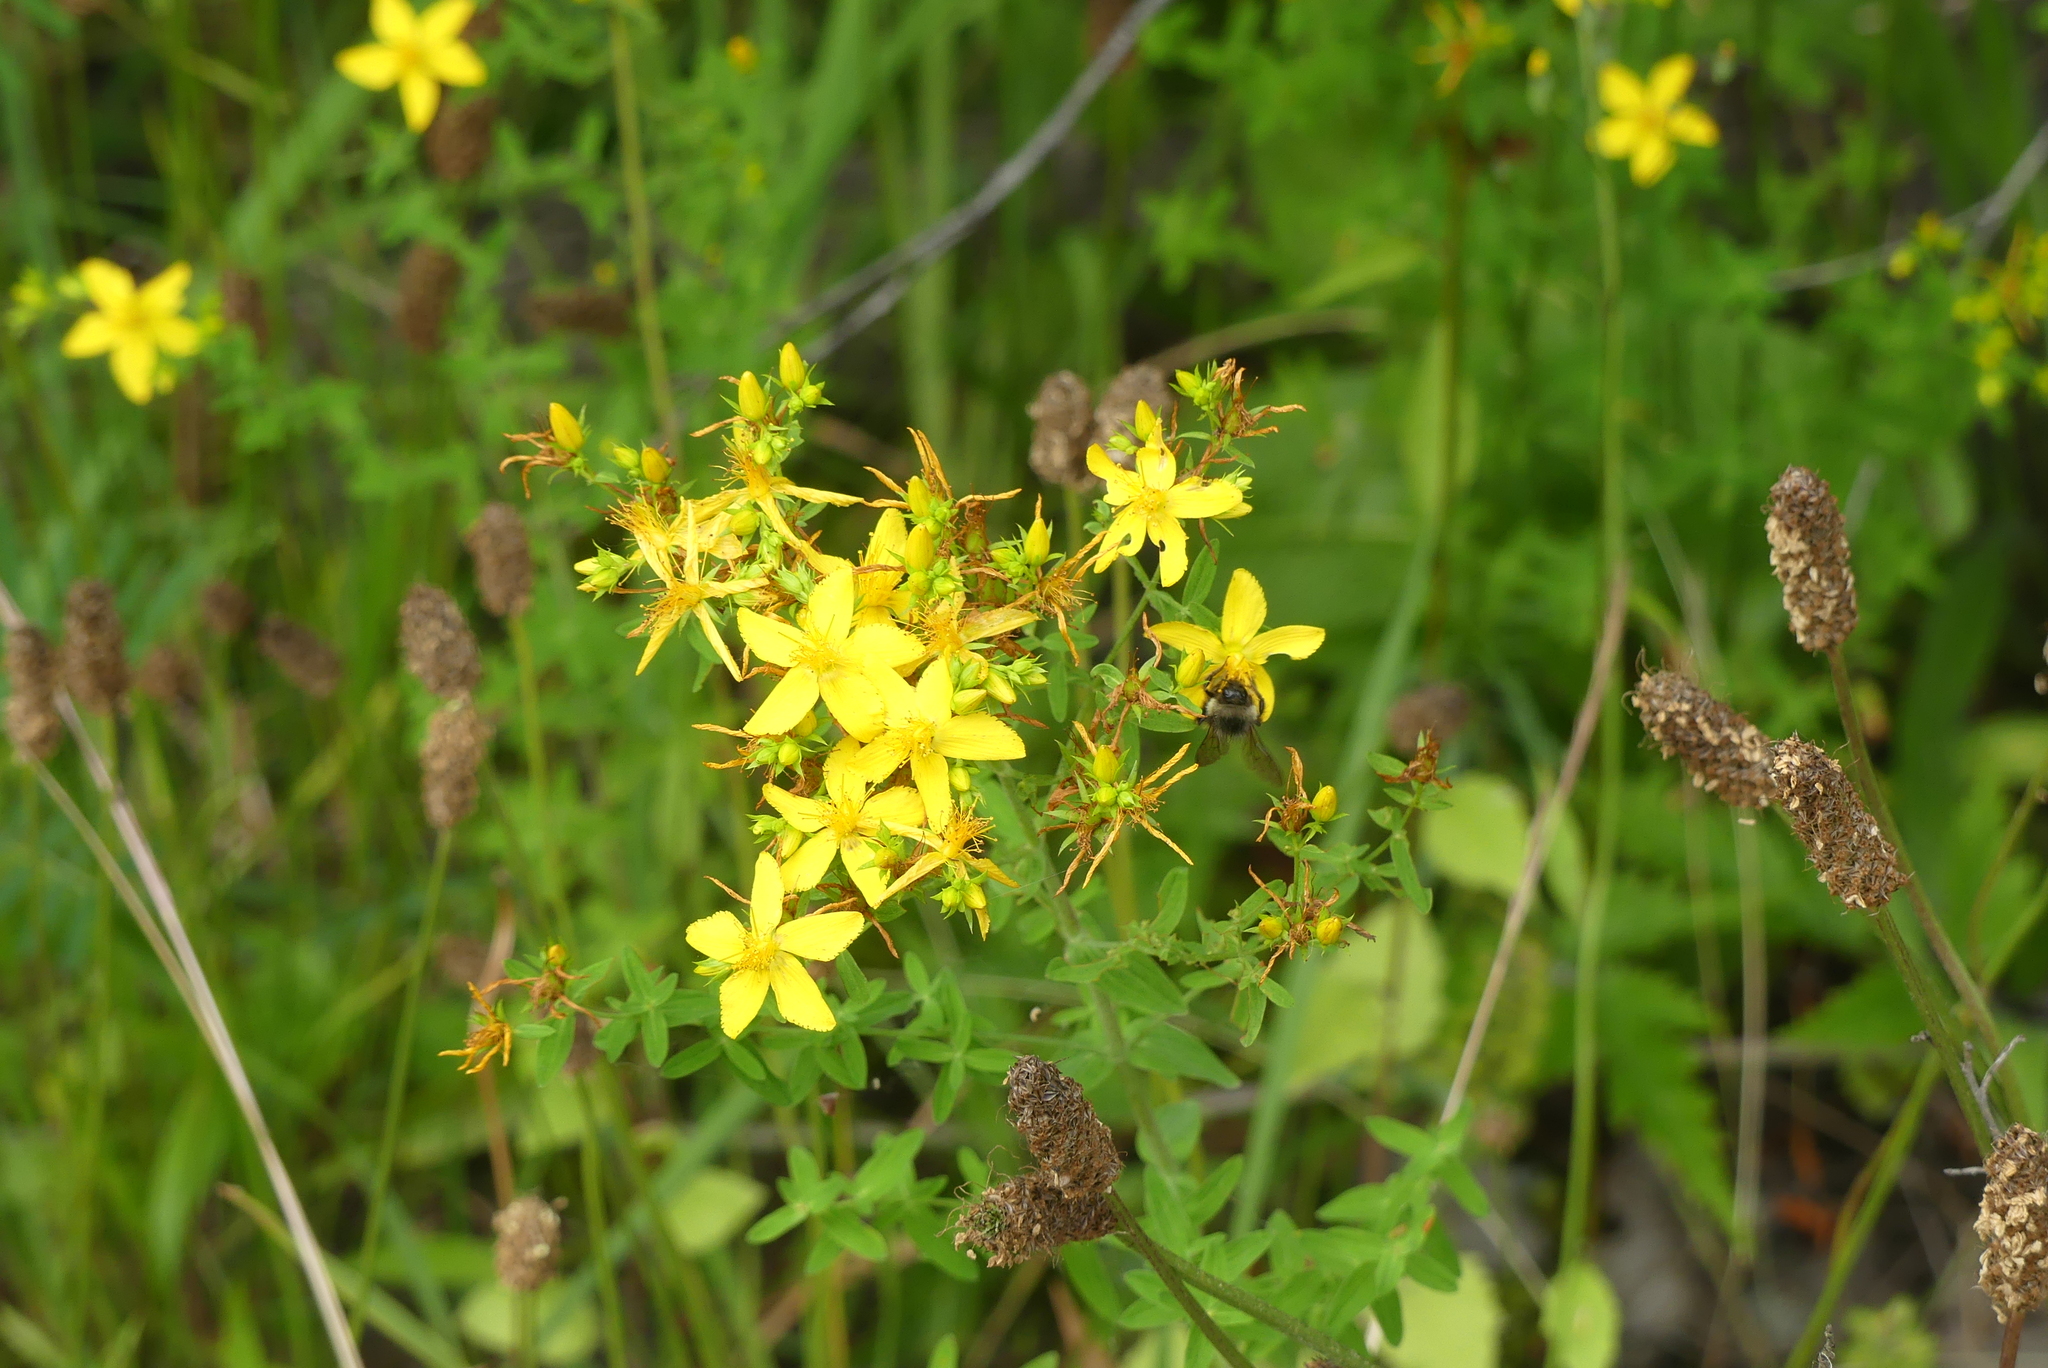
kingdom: Animalia
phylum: Arthropoda
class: Insecta
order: Hymenoptera
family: Apidae
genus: Bombus
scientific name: Bombus sitkensis
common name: Sitka bumble bee
